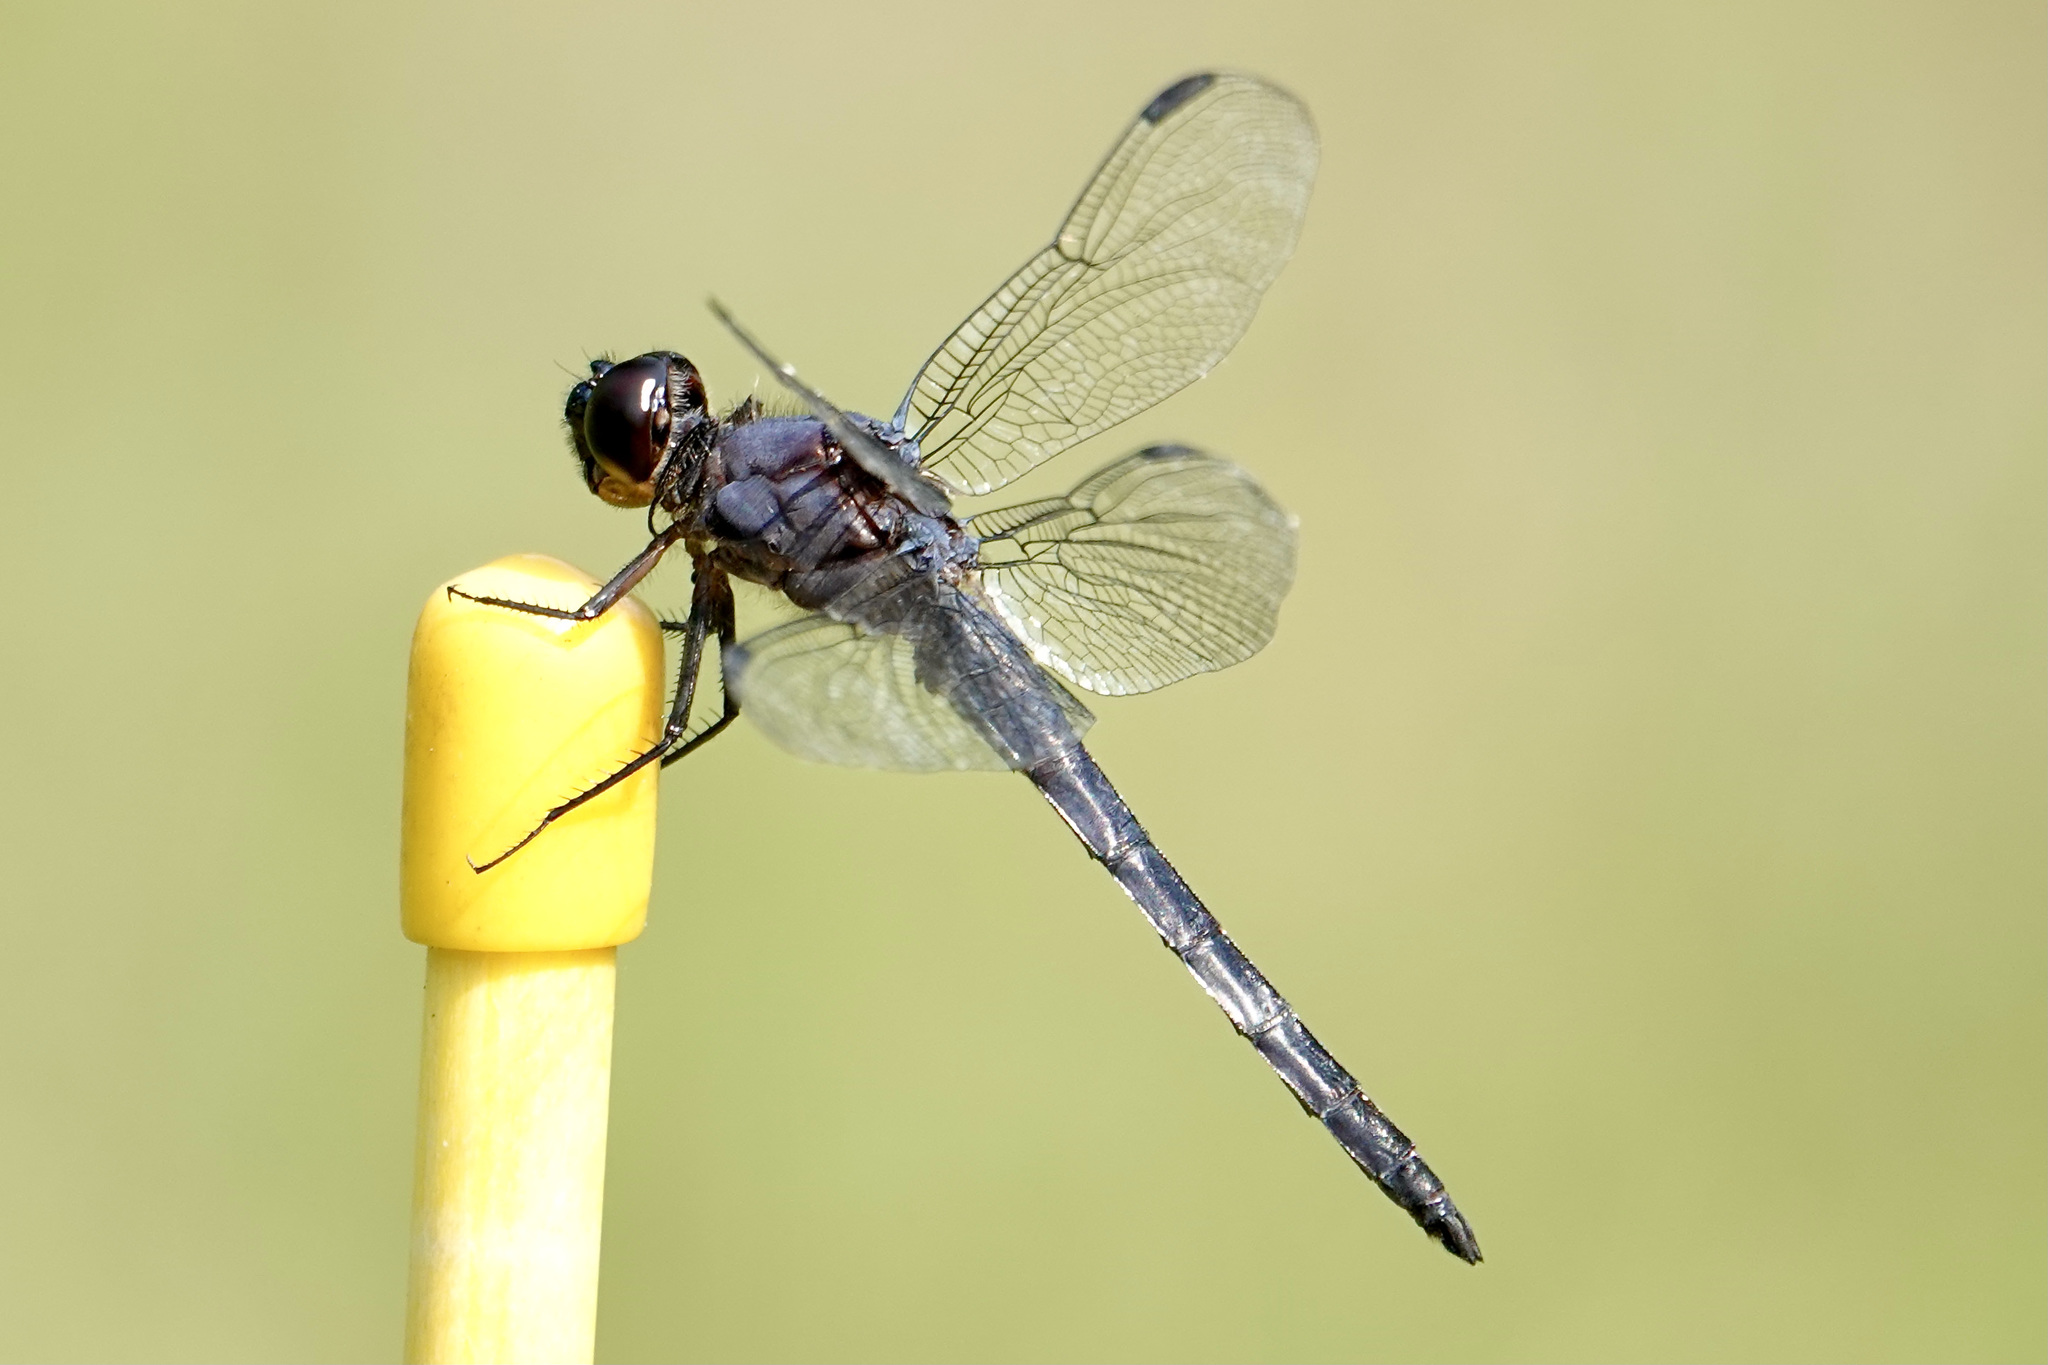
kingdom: Animalia
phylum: Arthropoda
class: Insecta
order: Odonata
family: Libellulidae
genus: Libellula
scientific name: Libellula incesta
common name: Slaty skimmer
